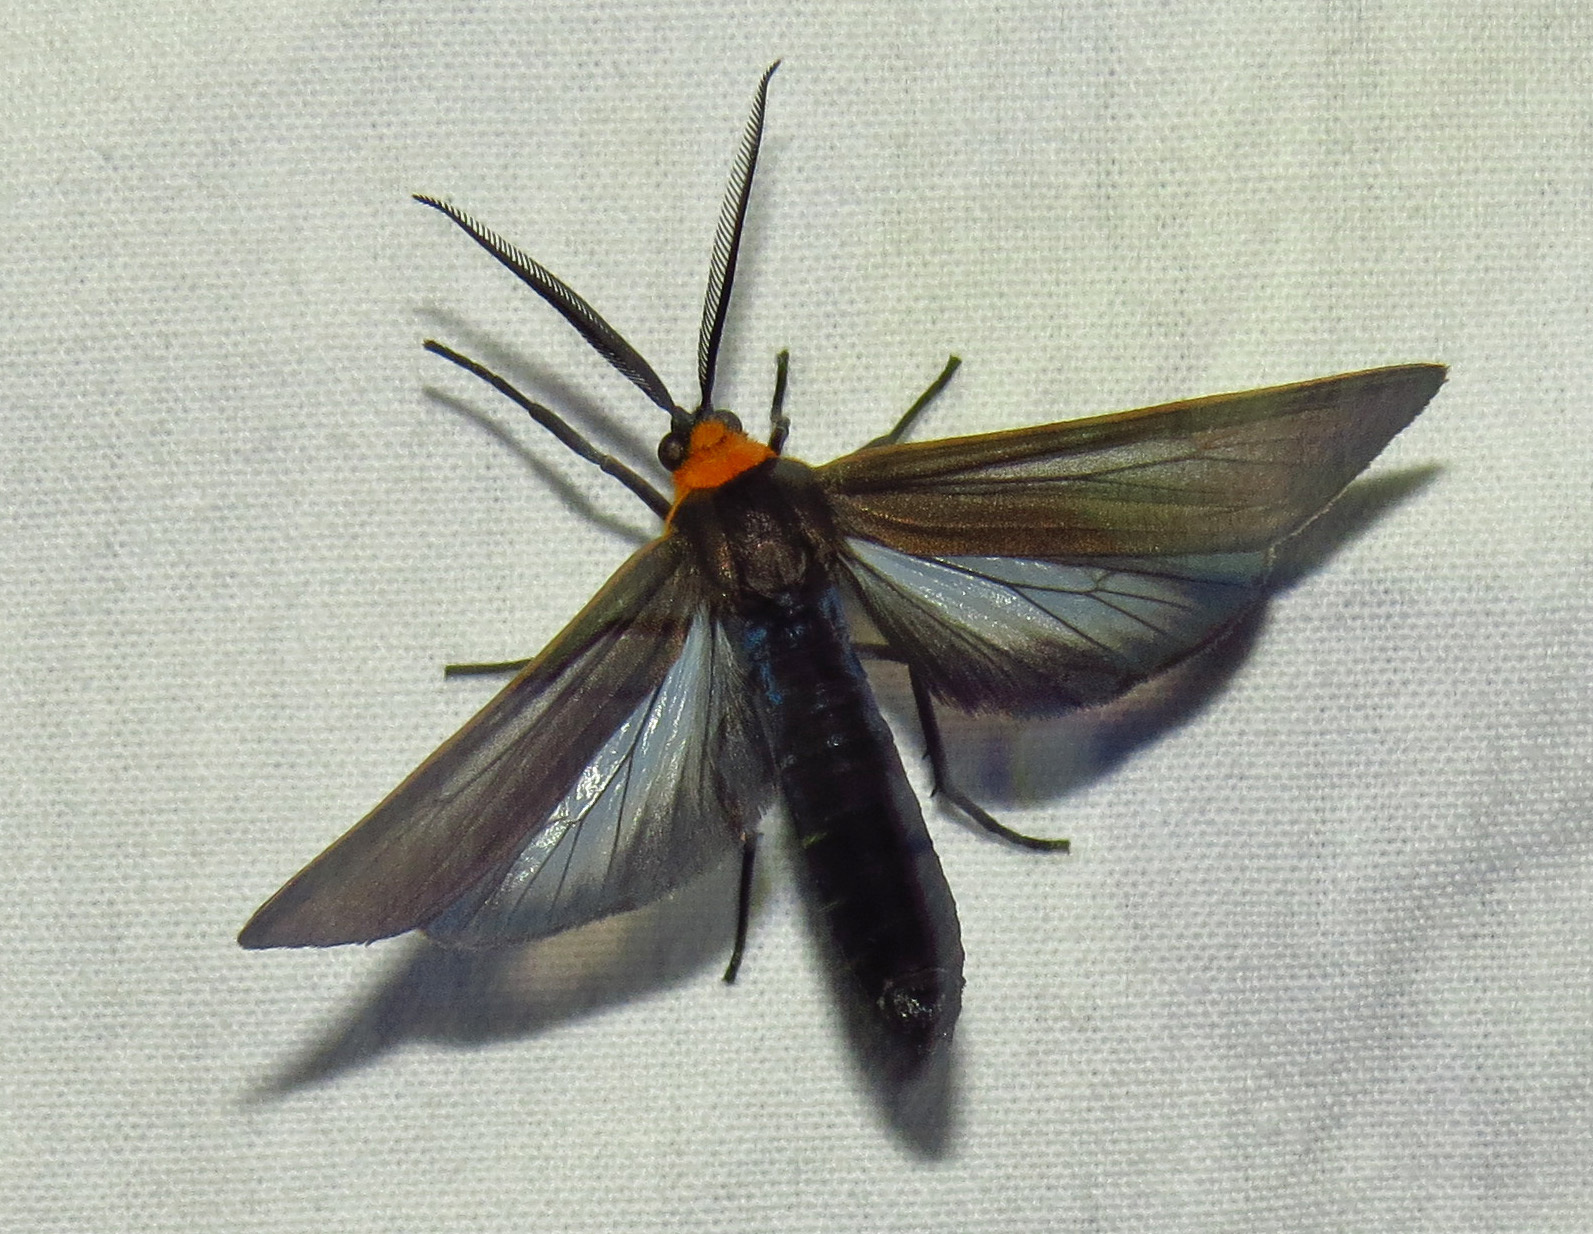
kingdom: Animalia
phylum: Arthropoda
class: Insecta
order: Lepidoptera
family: Erebidae
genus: Cisseps
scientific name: Cisseps fulvicollis
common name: Yellow-collared scape moth
